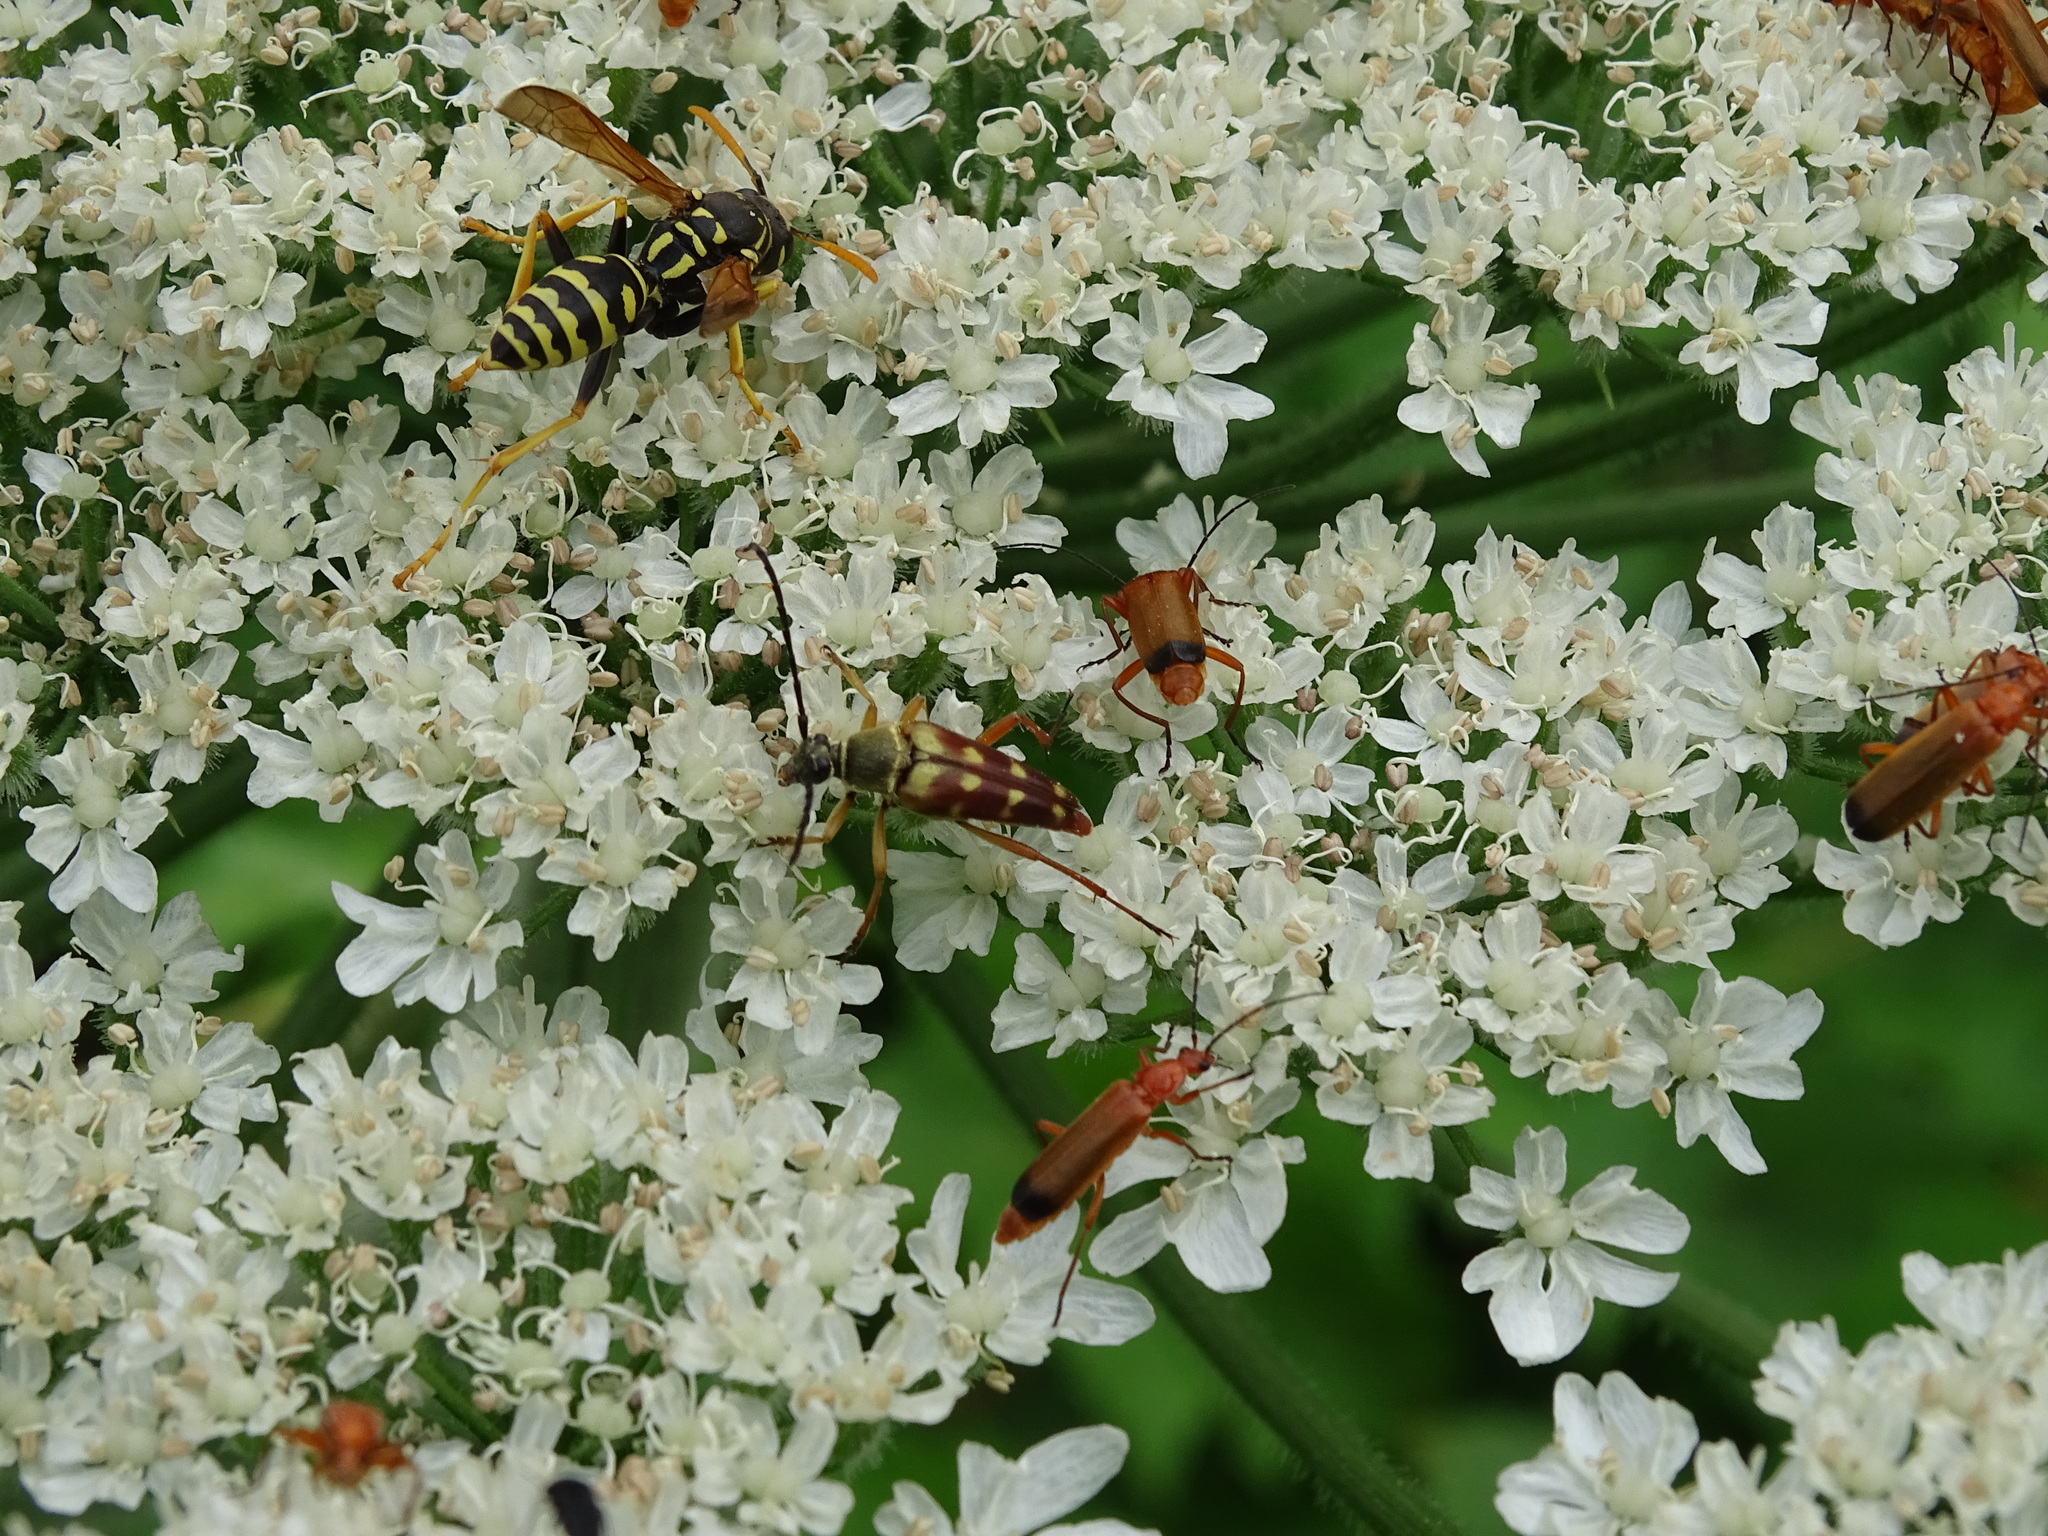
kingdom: Animalia
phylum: Arthropoda
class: Insecta
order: Coleoptera
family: Cerambycidae
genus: Typocerus
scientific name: Typocerus velutinus
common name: Banded longhorn beetle
